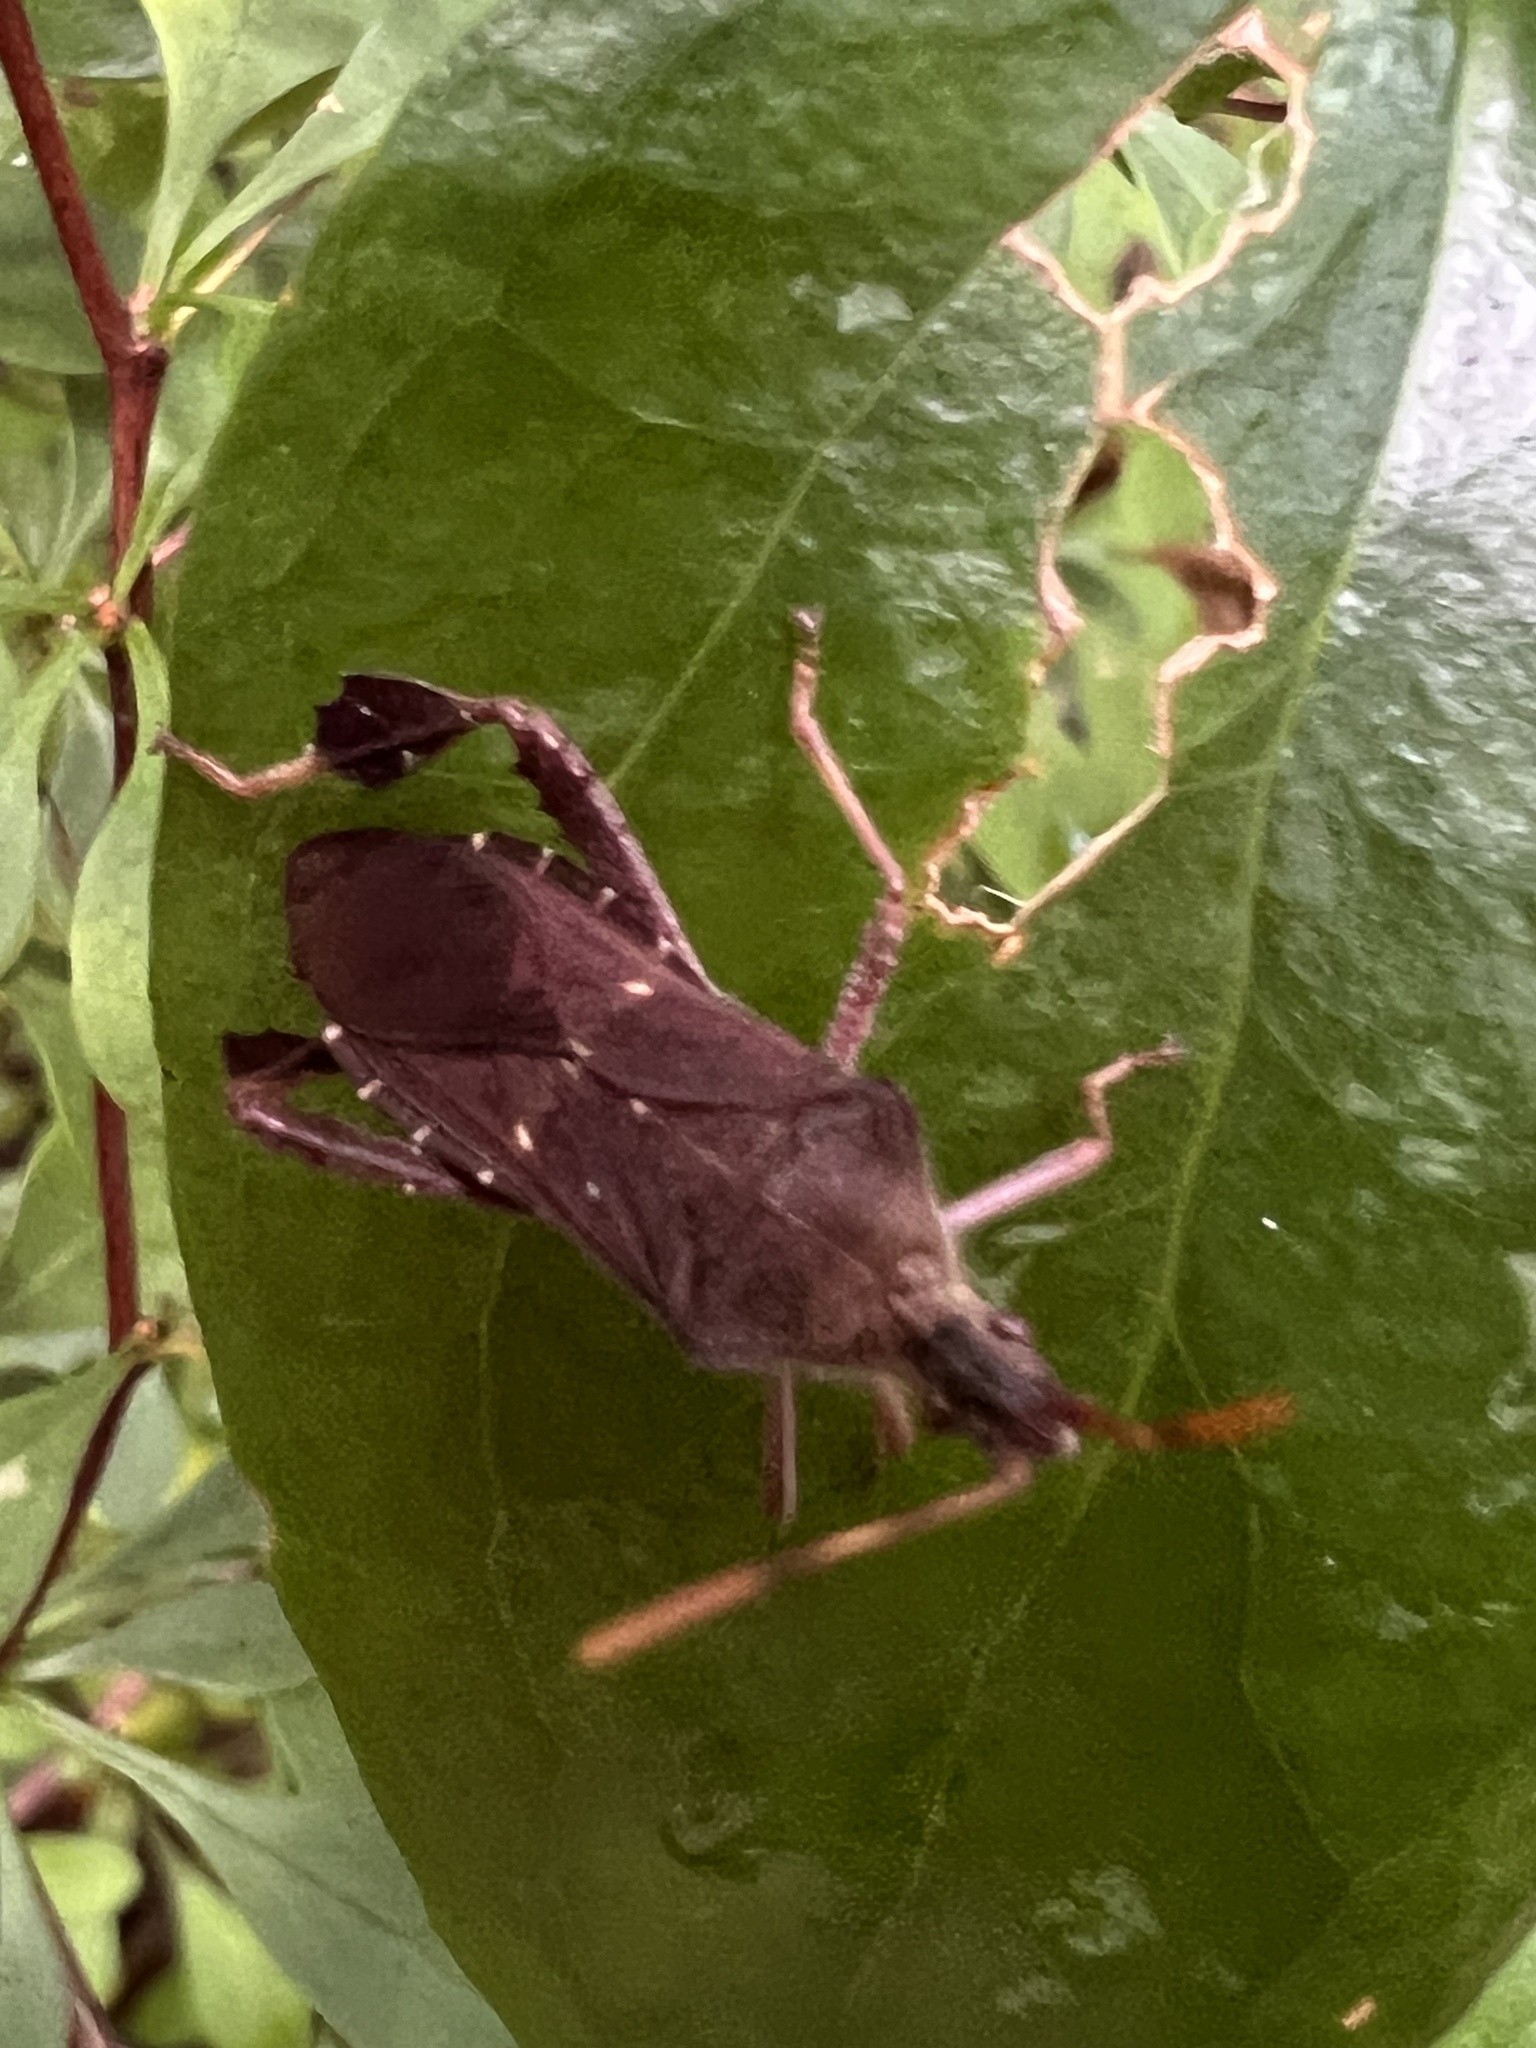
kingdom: Animalia
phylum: Arthropoda
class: Insecta
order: Hemiptera
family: Coreidae
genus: Leptoglossus
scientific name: Leptoglossus oppositus
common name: Northern leaf-footed bug
